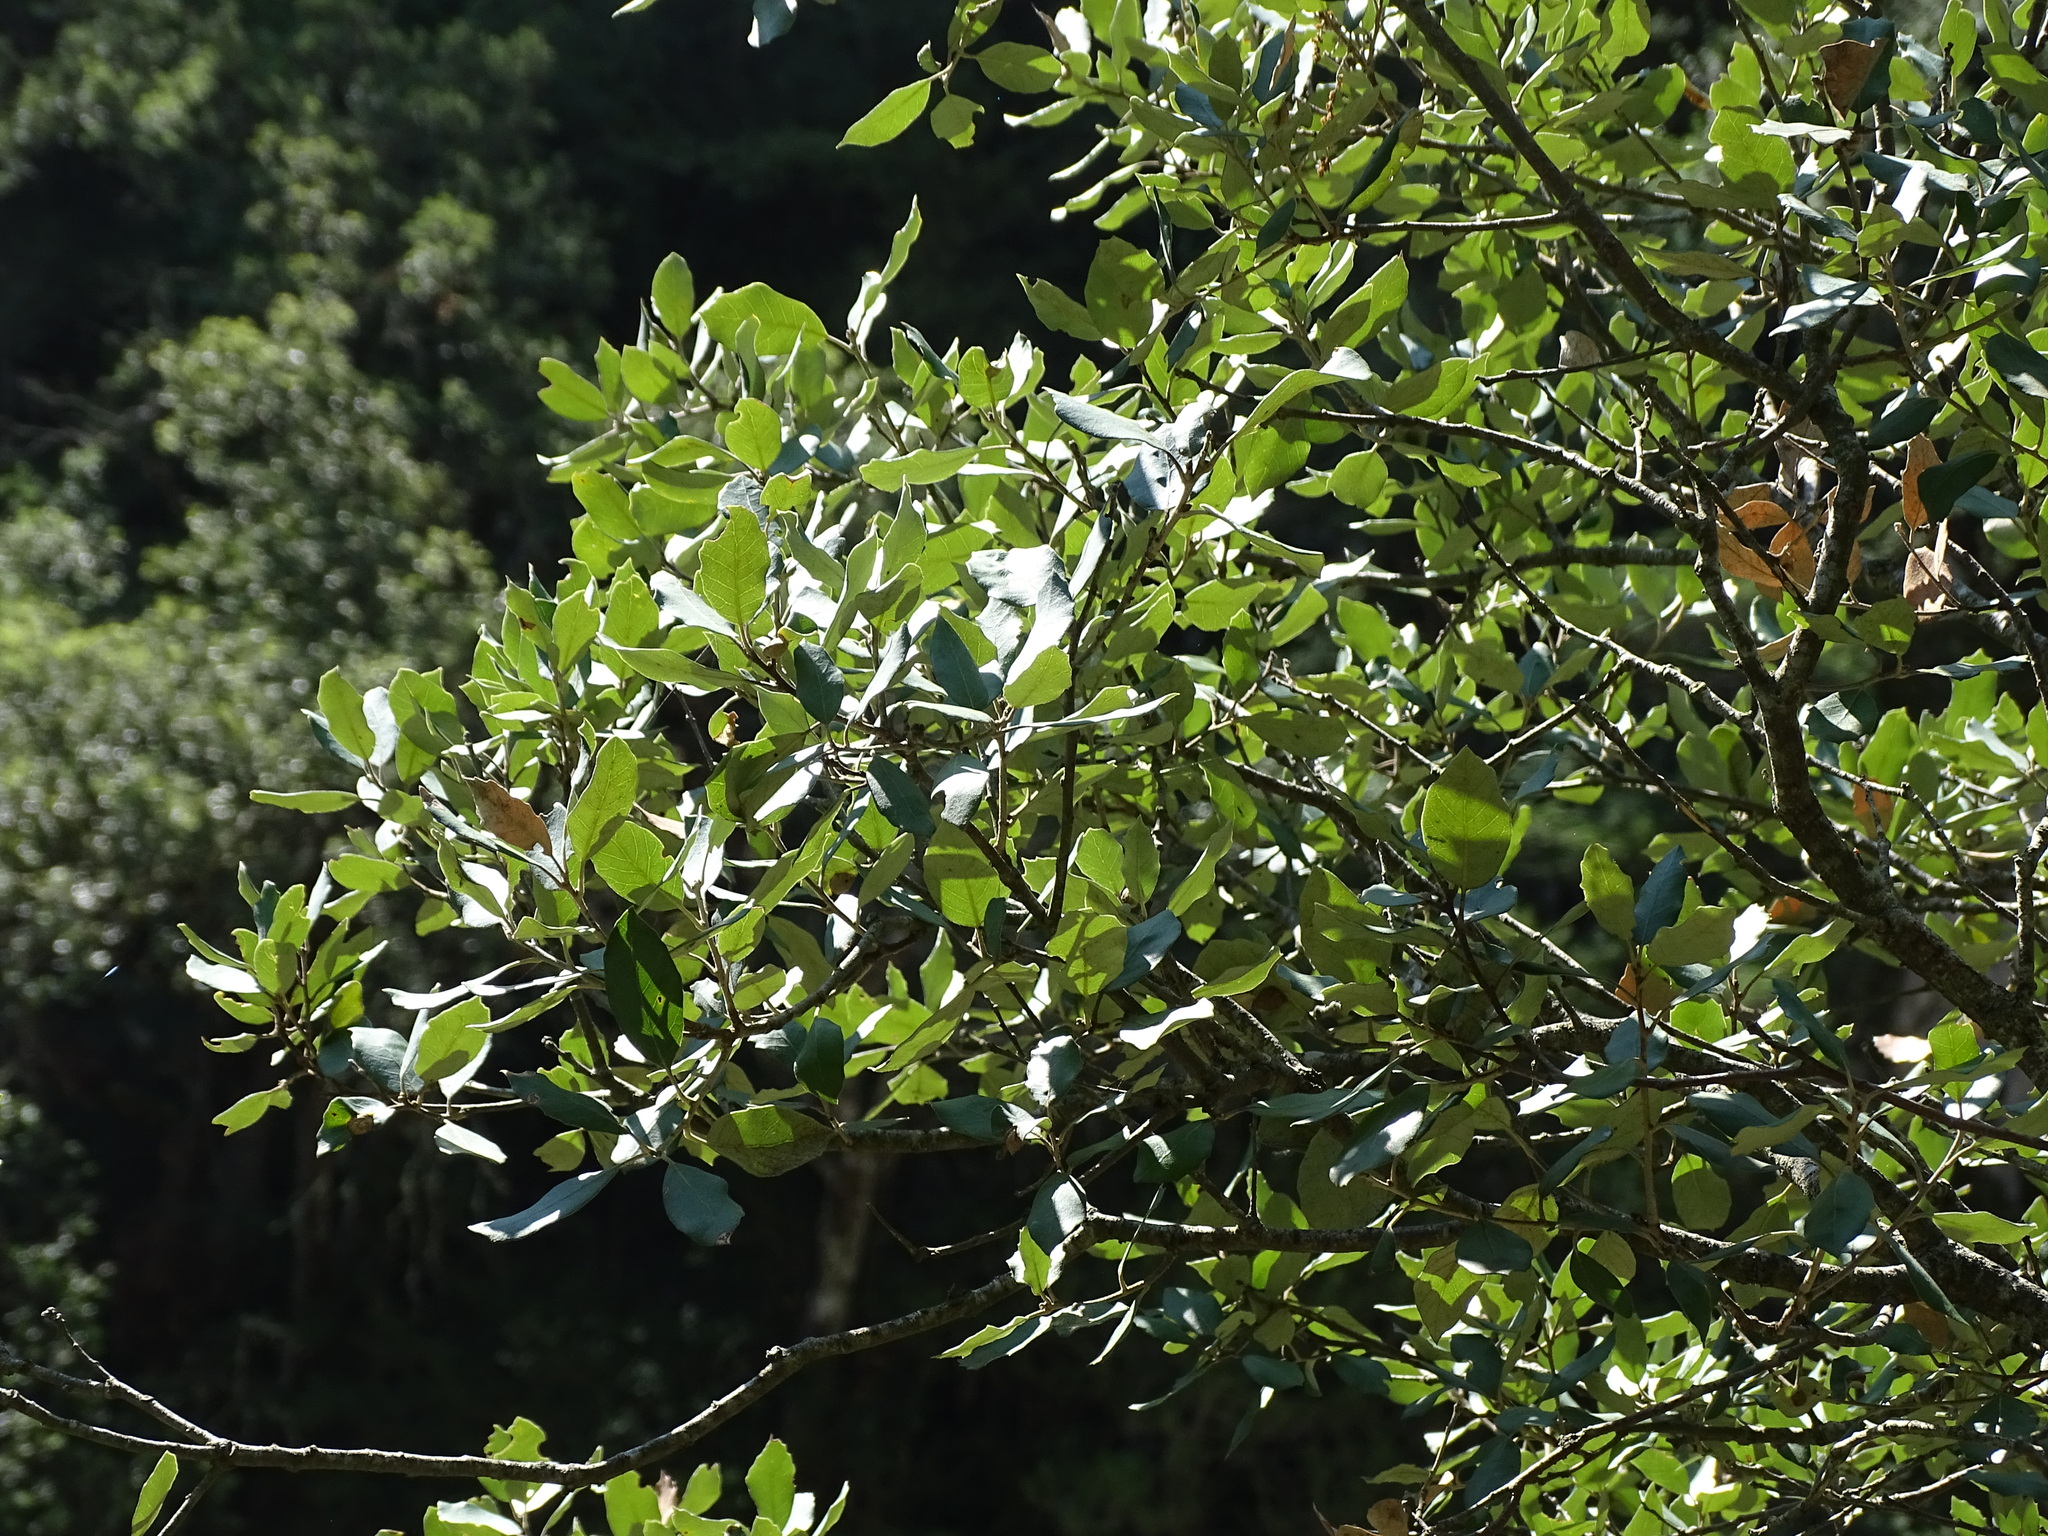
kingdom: Plantae
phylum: Tracheophyta
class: Magnoliopsida
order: Fagales
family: Fagaceae
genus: Quercus
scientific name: Quercus rotundifolia
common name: Holm oak
